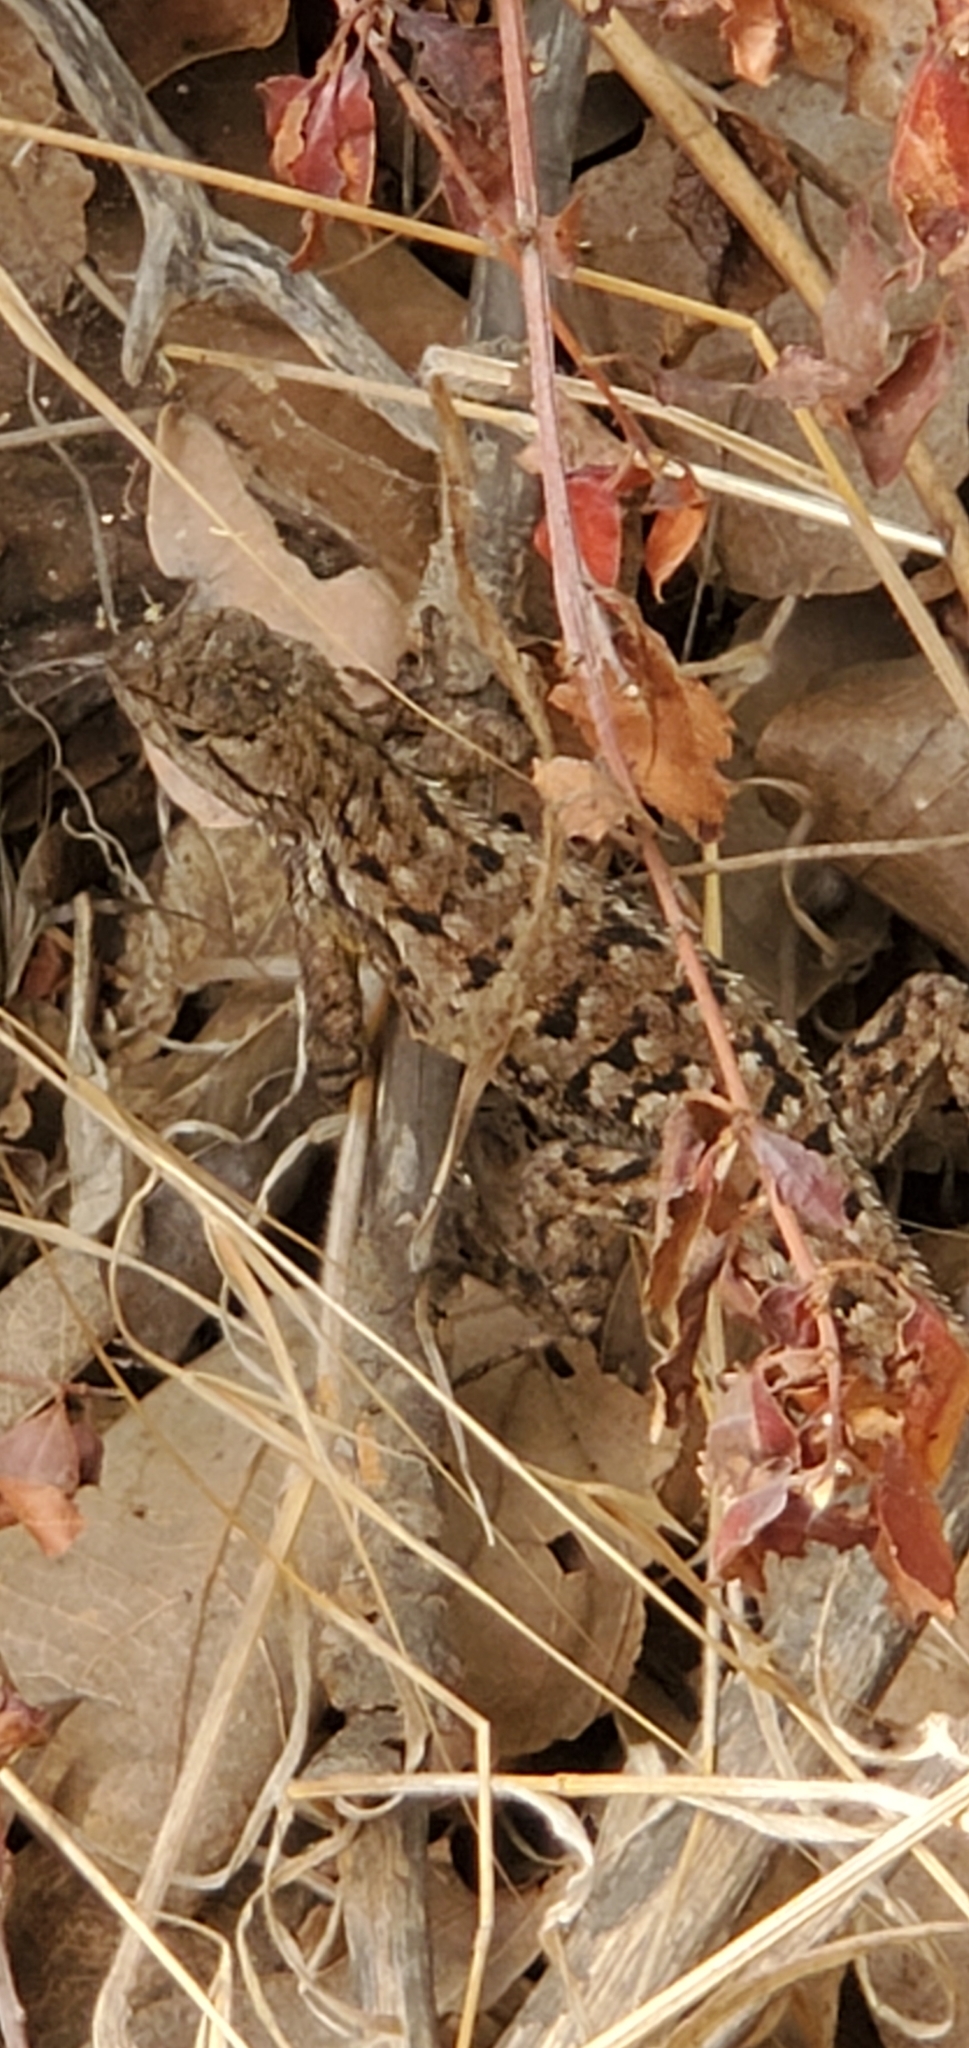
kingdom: Animalia
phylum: Chordata
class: Squamata
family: Phrynosomatidae
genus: Uta
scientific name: Uta stansburiana
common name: Side-blotched lizard
